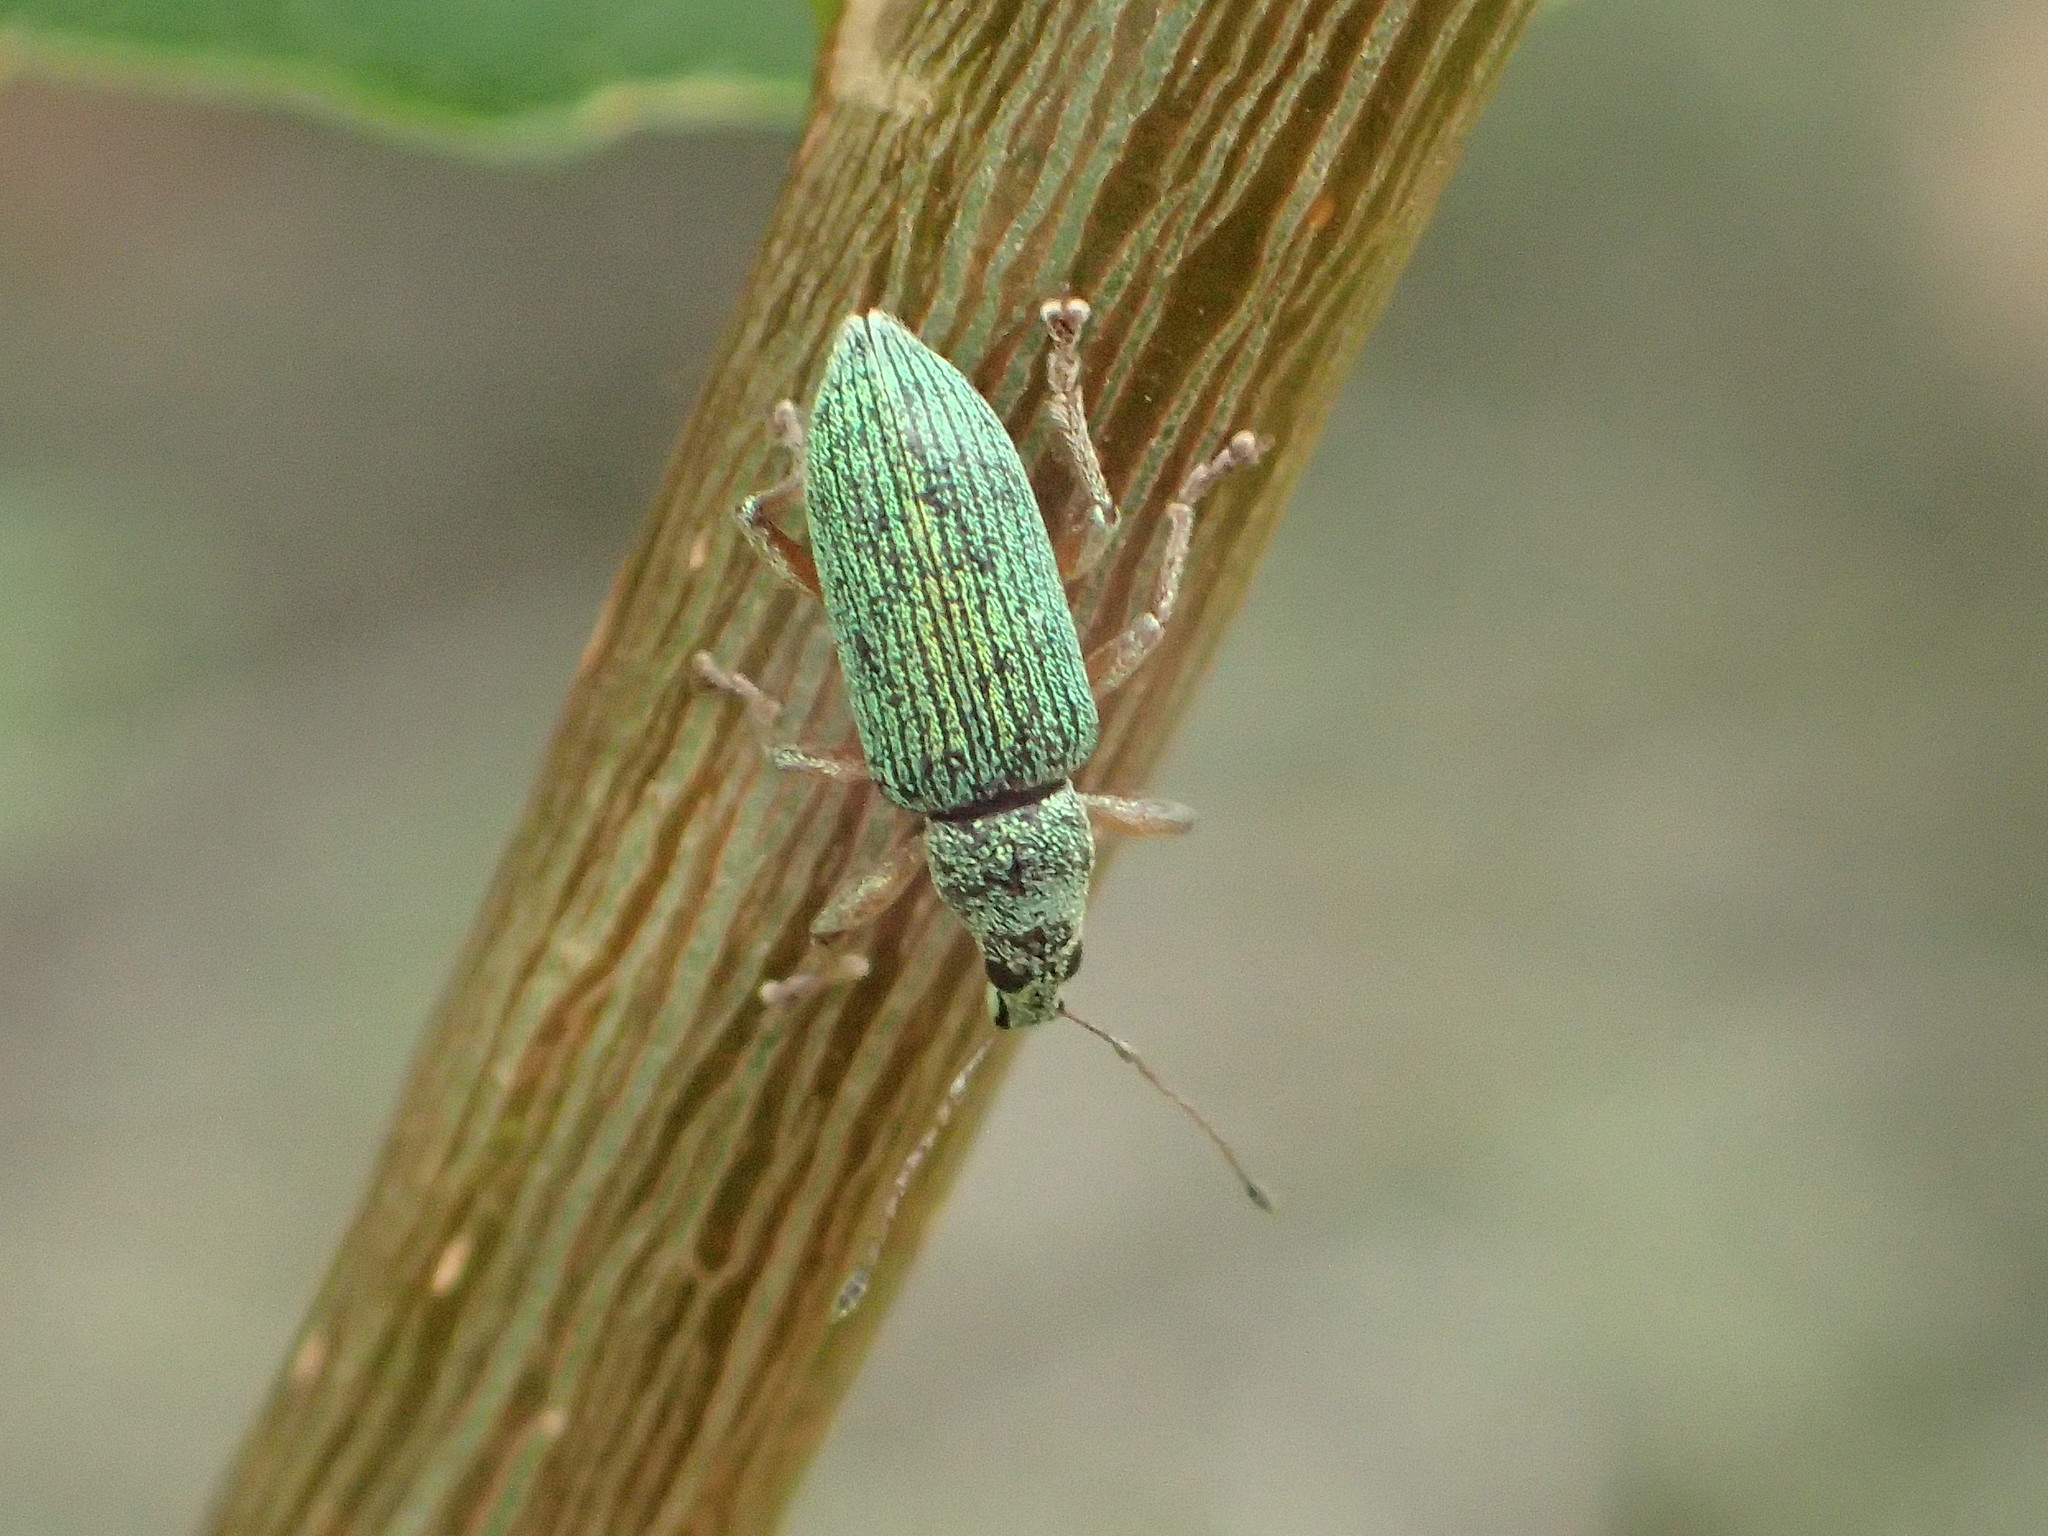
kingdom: Animalia
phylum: Arthropoda
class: Insecta
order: Coleoptera
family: Curculionidae
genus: Polydrusus
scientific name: Polydrusus formosus
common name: Weevil
